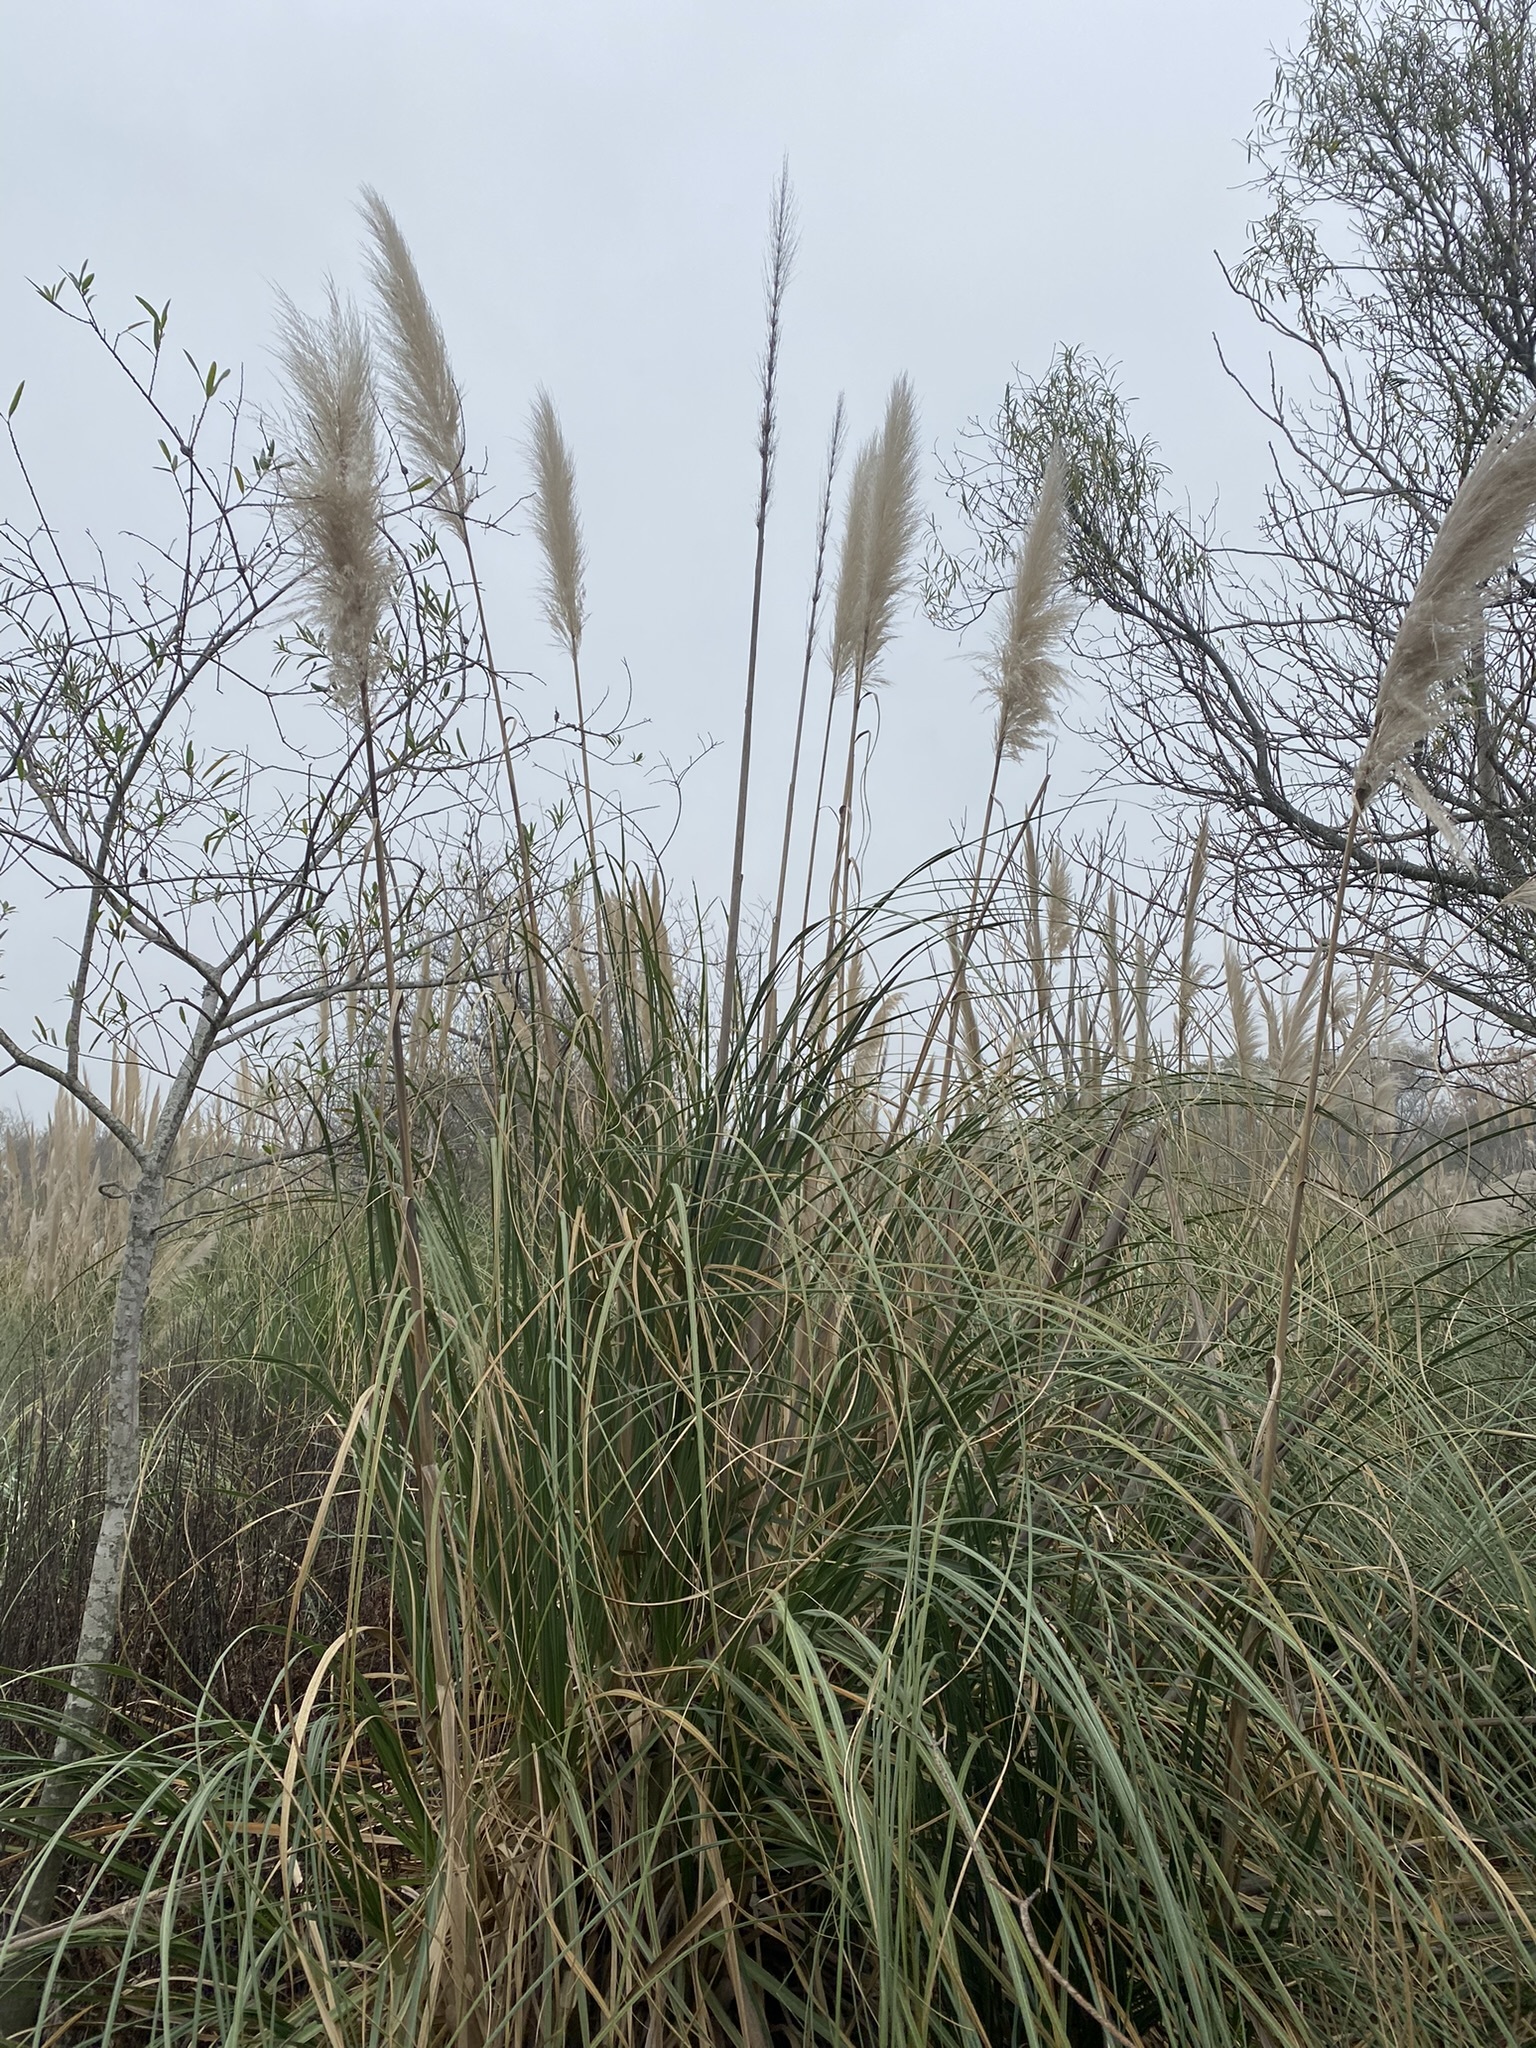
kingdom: Plantae
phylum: Tracheophyta
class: Liliopsida
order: Poales
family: Poaceae
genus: Cortaderia
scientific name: Cortaderia selloana
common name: Uruguayan pampas grass
